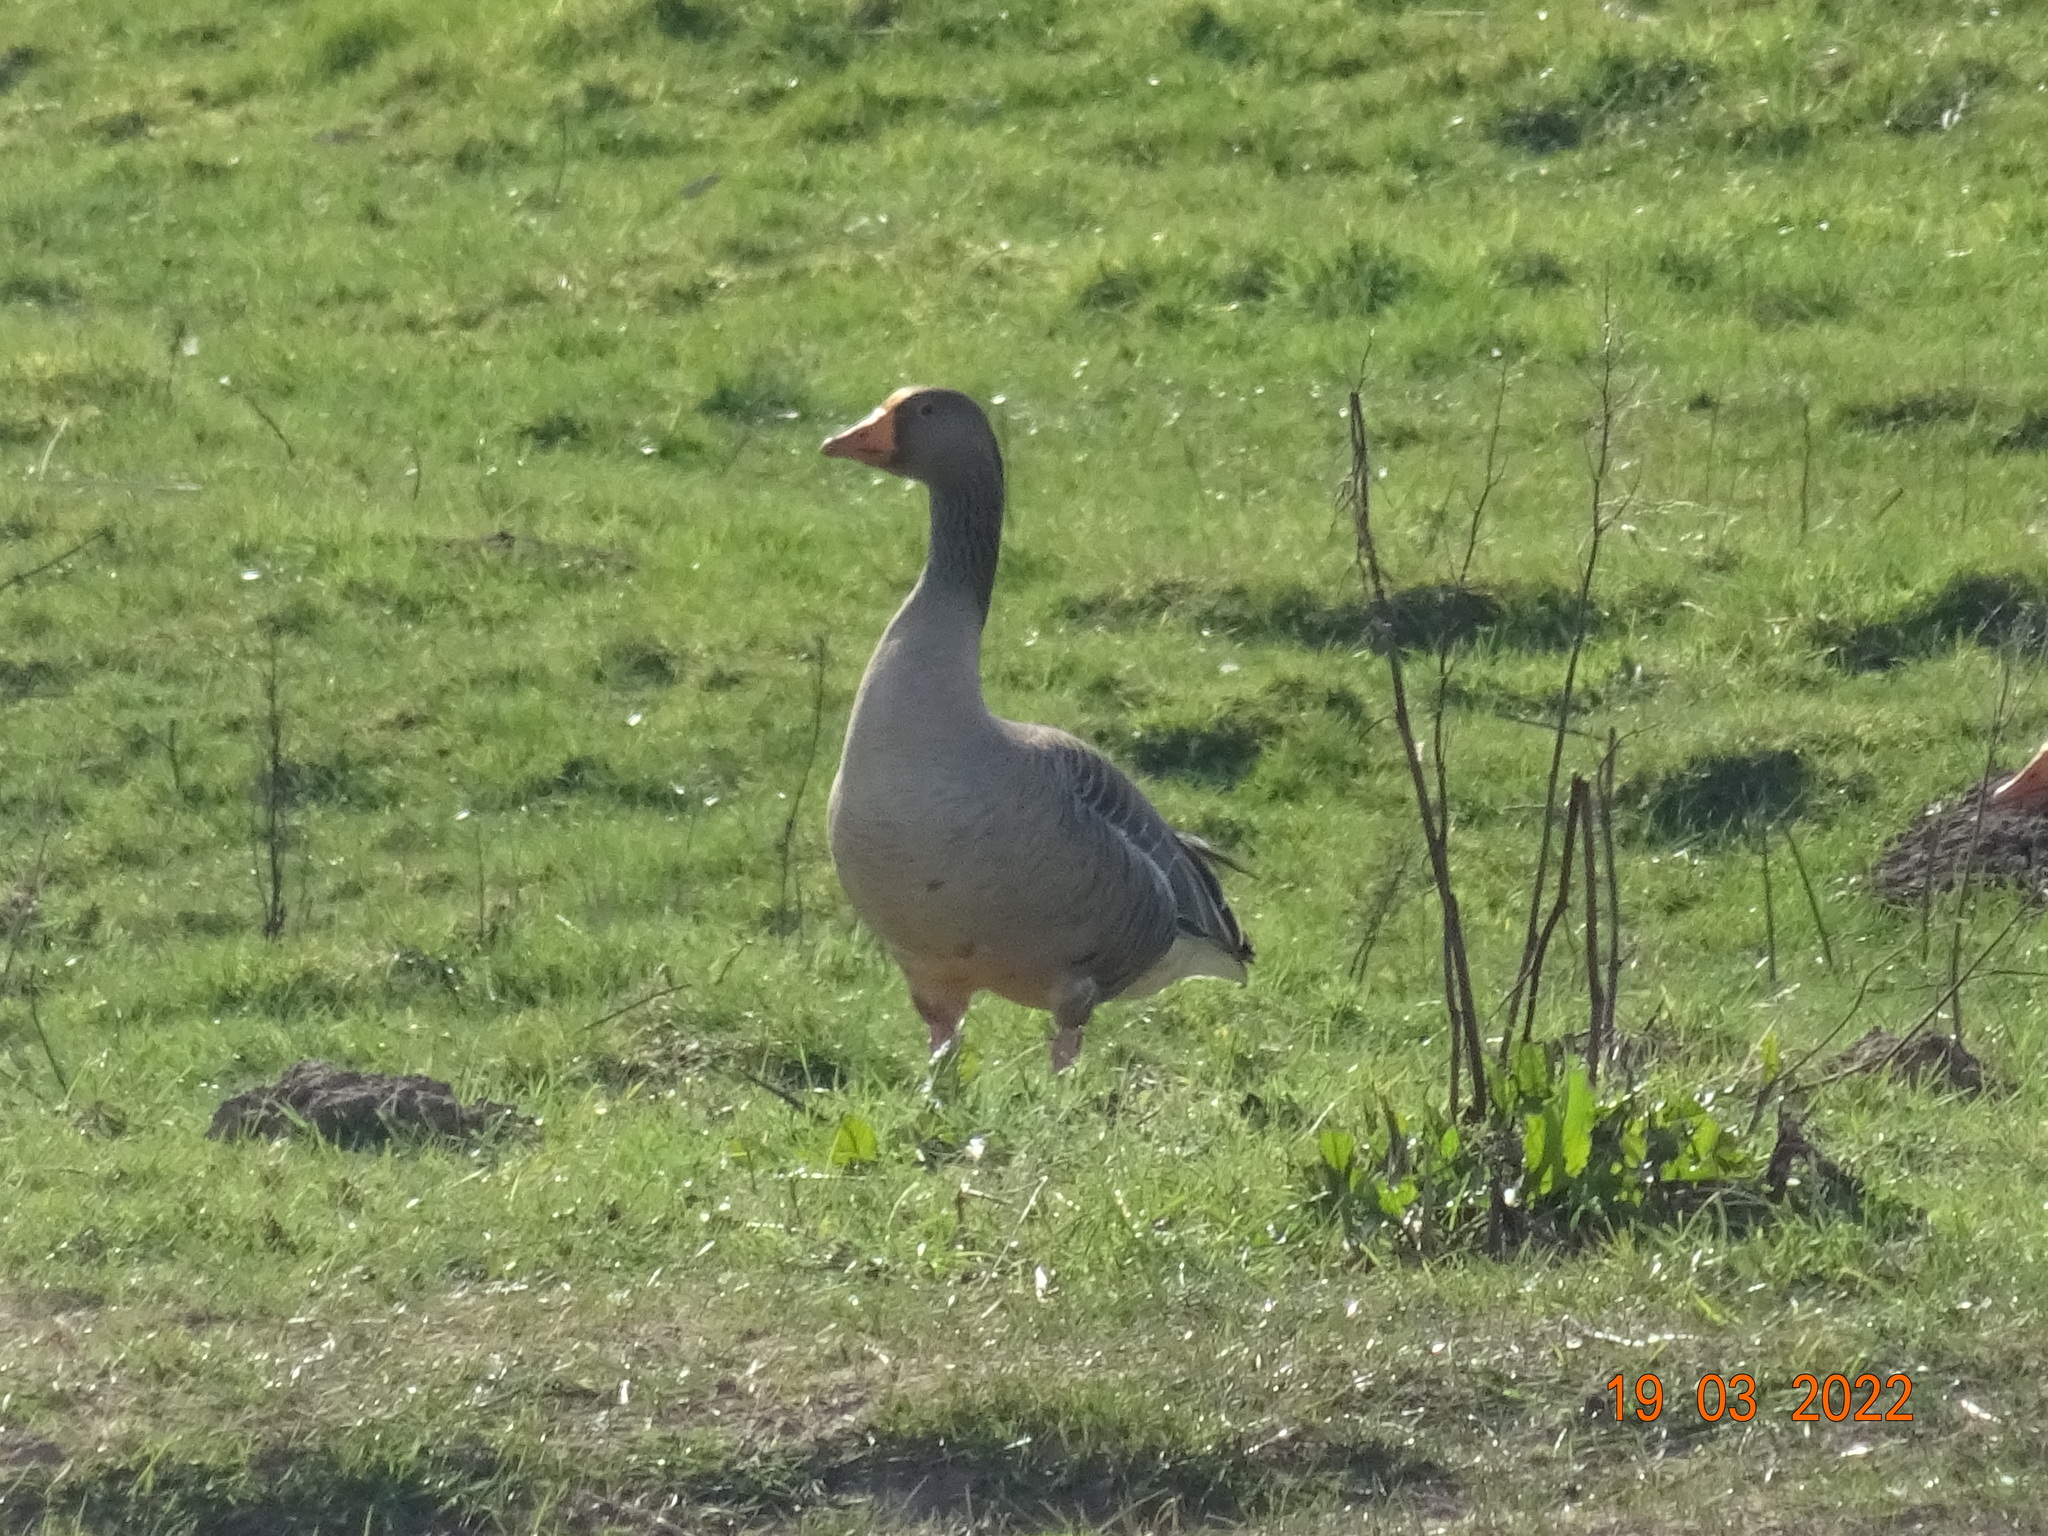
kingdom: Animalia
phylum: Chordata
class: Aves
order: Anseriformes
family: Anatidae
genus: Anser
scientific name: Anser anser
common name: Greylag goose
